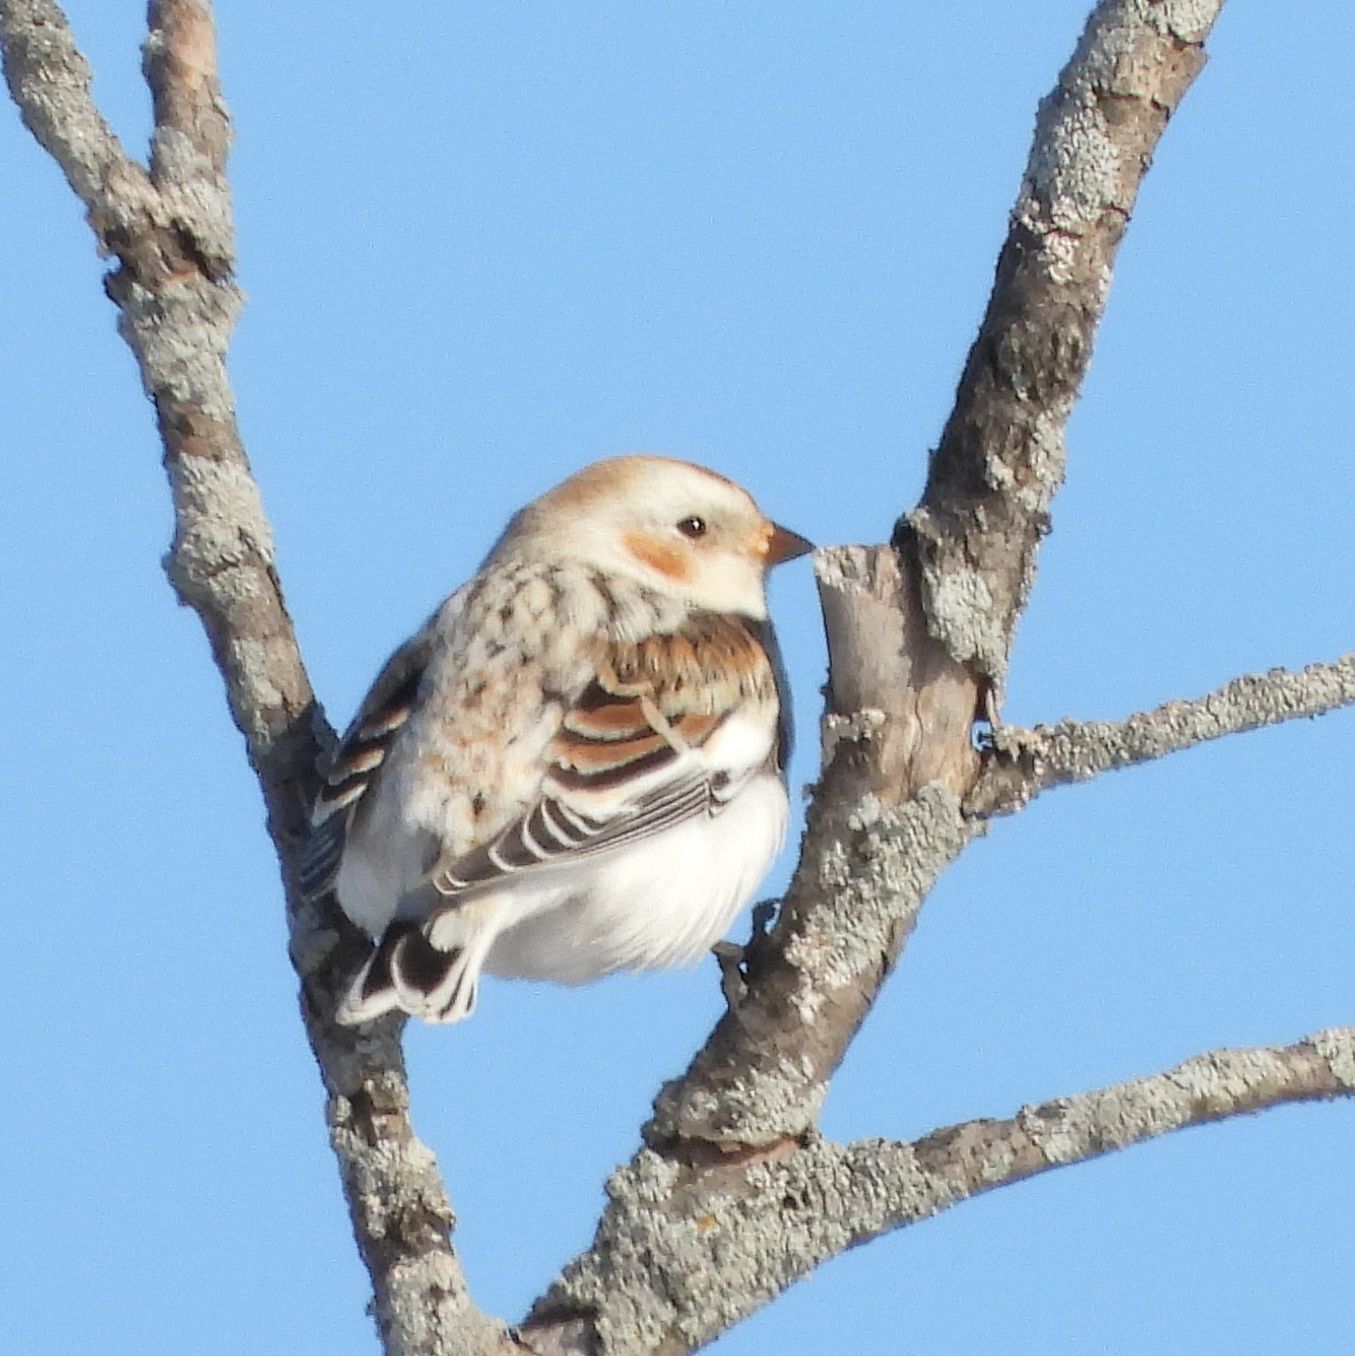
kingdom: Animalia
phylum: Chordata
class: Aves
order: Passeriformes
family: Calcariidae
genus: Plectrophenax
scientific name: Plectrophenax nivalis
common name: Snow bunting
